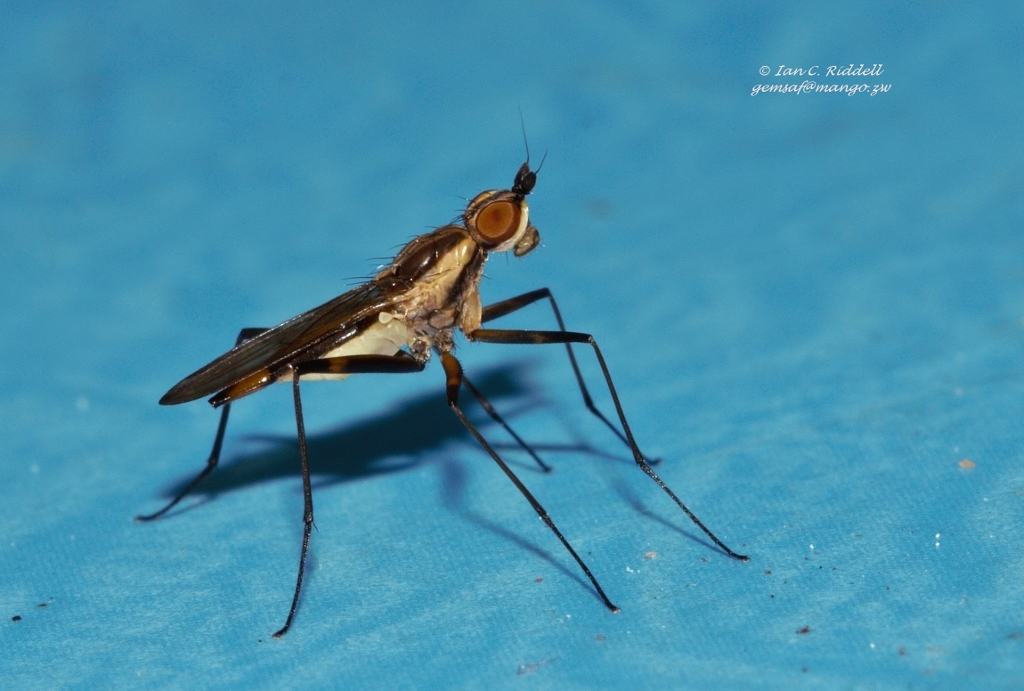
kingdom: Animalia
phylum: Arthropoda
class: Insecta
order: Diptera
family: Neriidae
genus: Chaetonerius
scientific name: Chaetonerius
